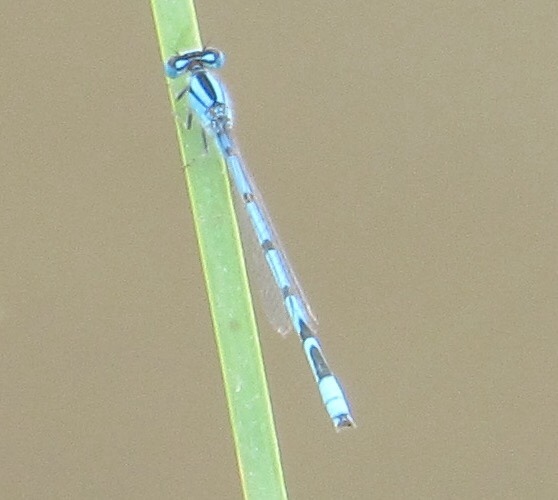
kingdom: Animalia
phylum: Arthropoda
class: Insecta
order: Odonata
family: Coenagrionidae
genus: Enallagma
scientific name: Enallagma civile
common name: Damselfly
